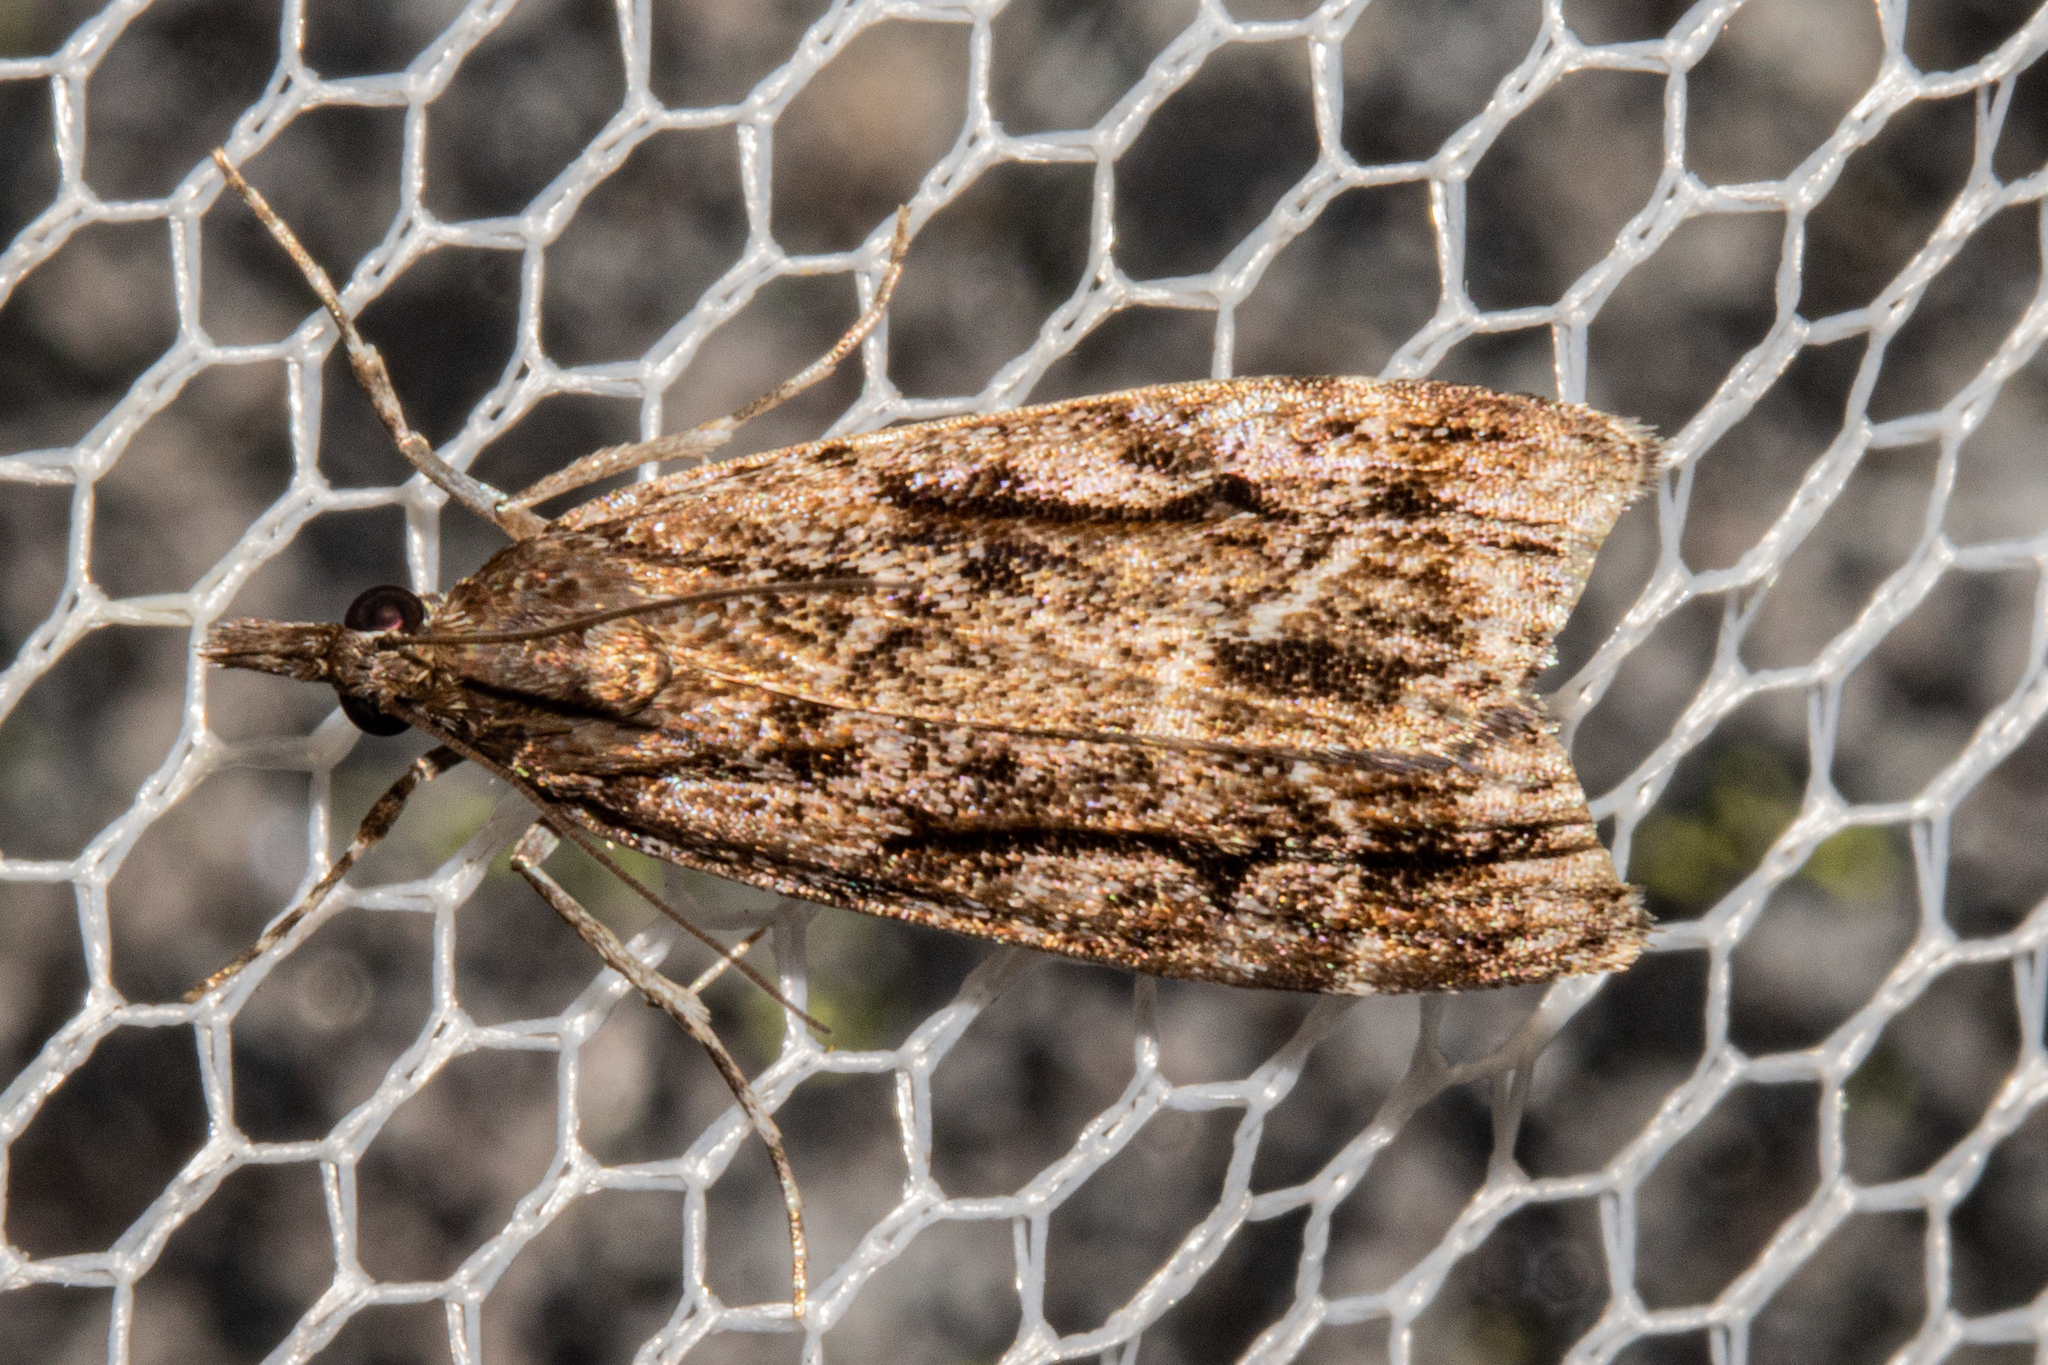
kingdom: Animalia
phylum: Arthropoda
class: Insecta
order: Lepidoptera
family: Crambidae
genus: Eudonia
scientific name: Eudonia bisinualis
